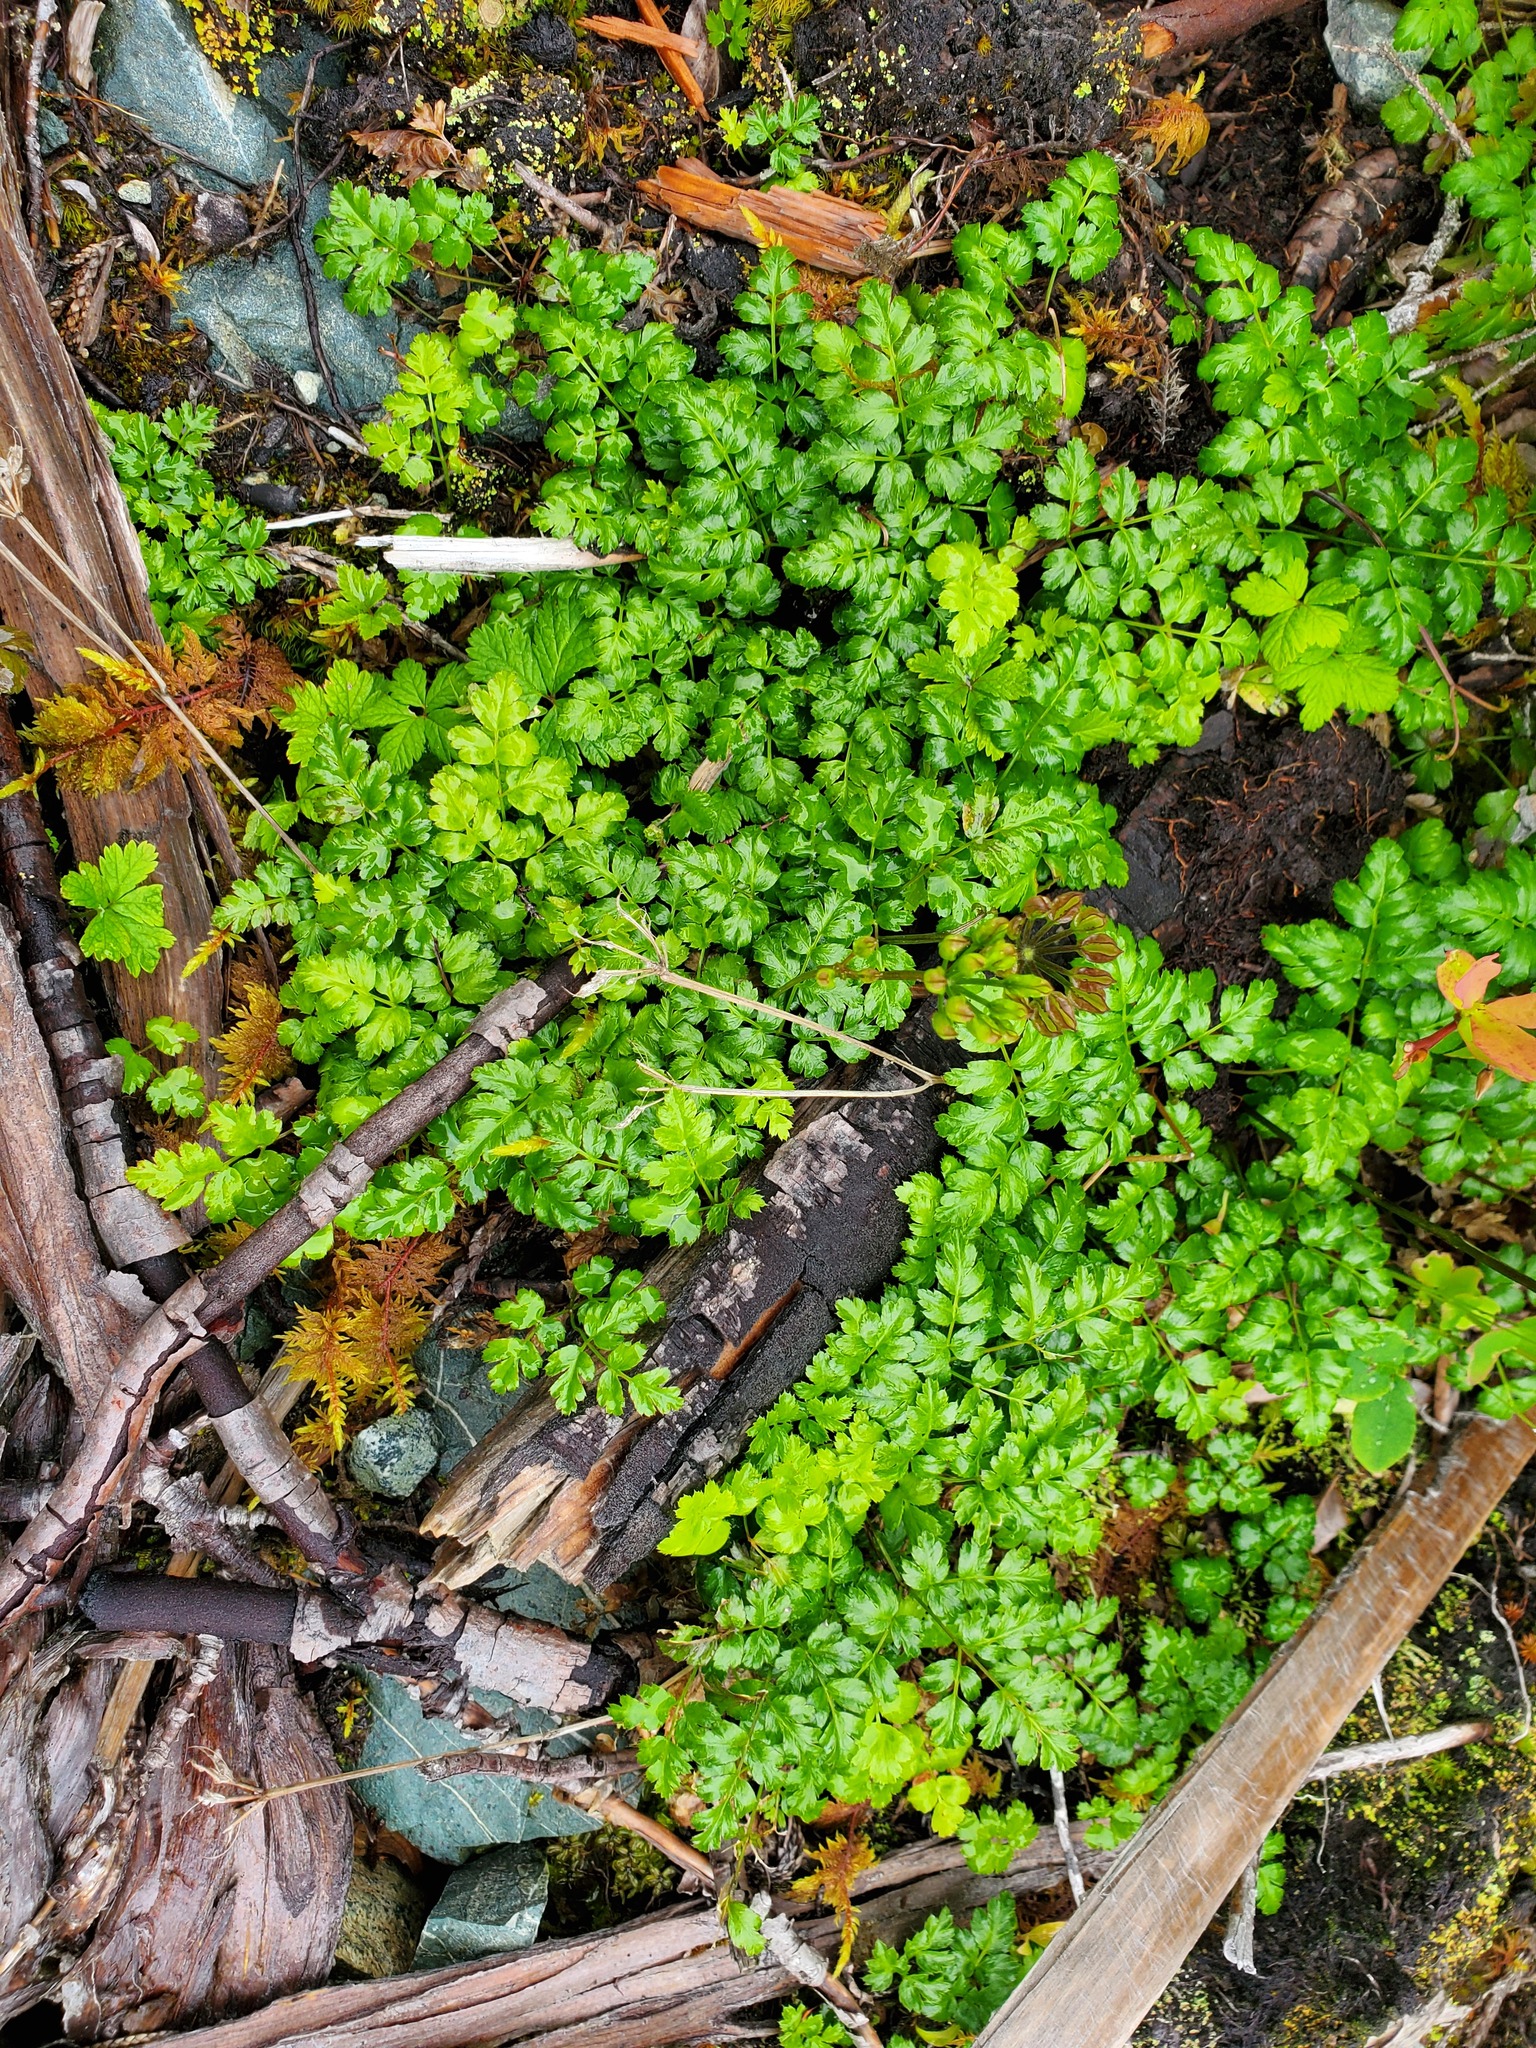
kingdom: Plantae
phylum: Tracheophyta
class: Magnoliopsida
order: Ranunculales
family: Ranunculaceae
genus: Coptis
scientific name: Coptis aspleniifolia
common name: Fern-leaved goldthread
